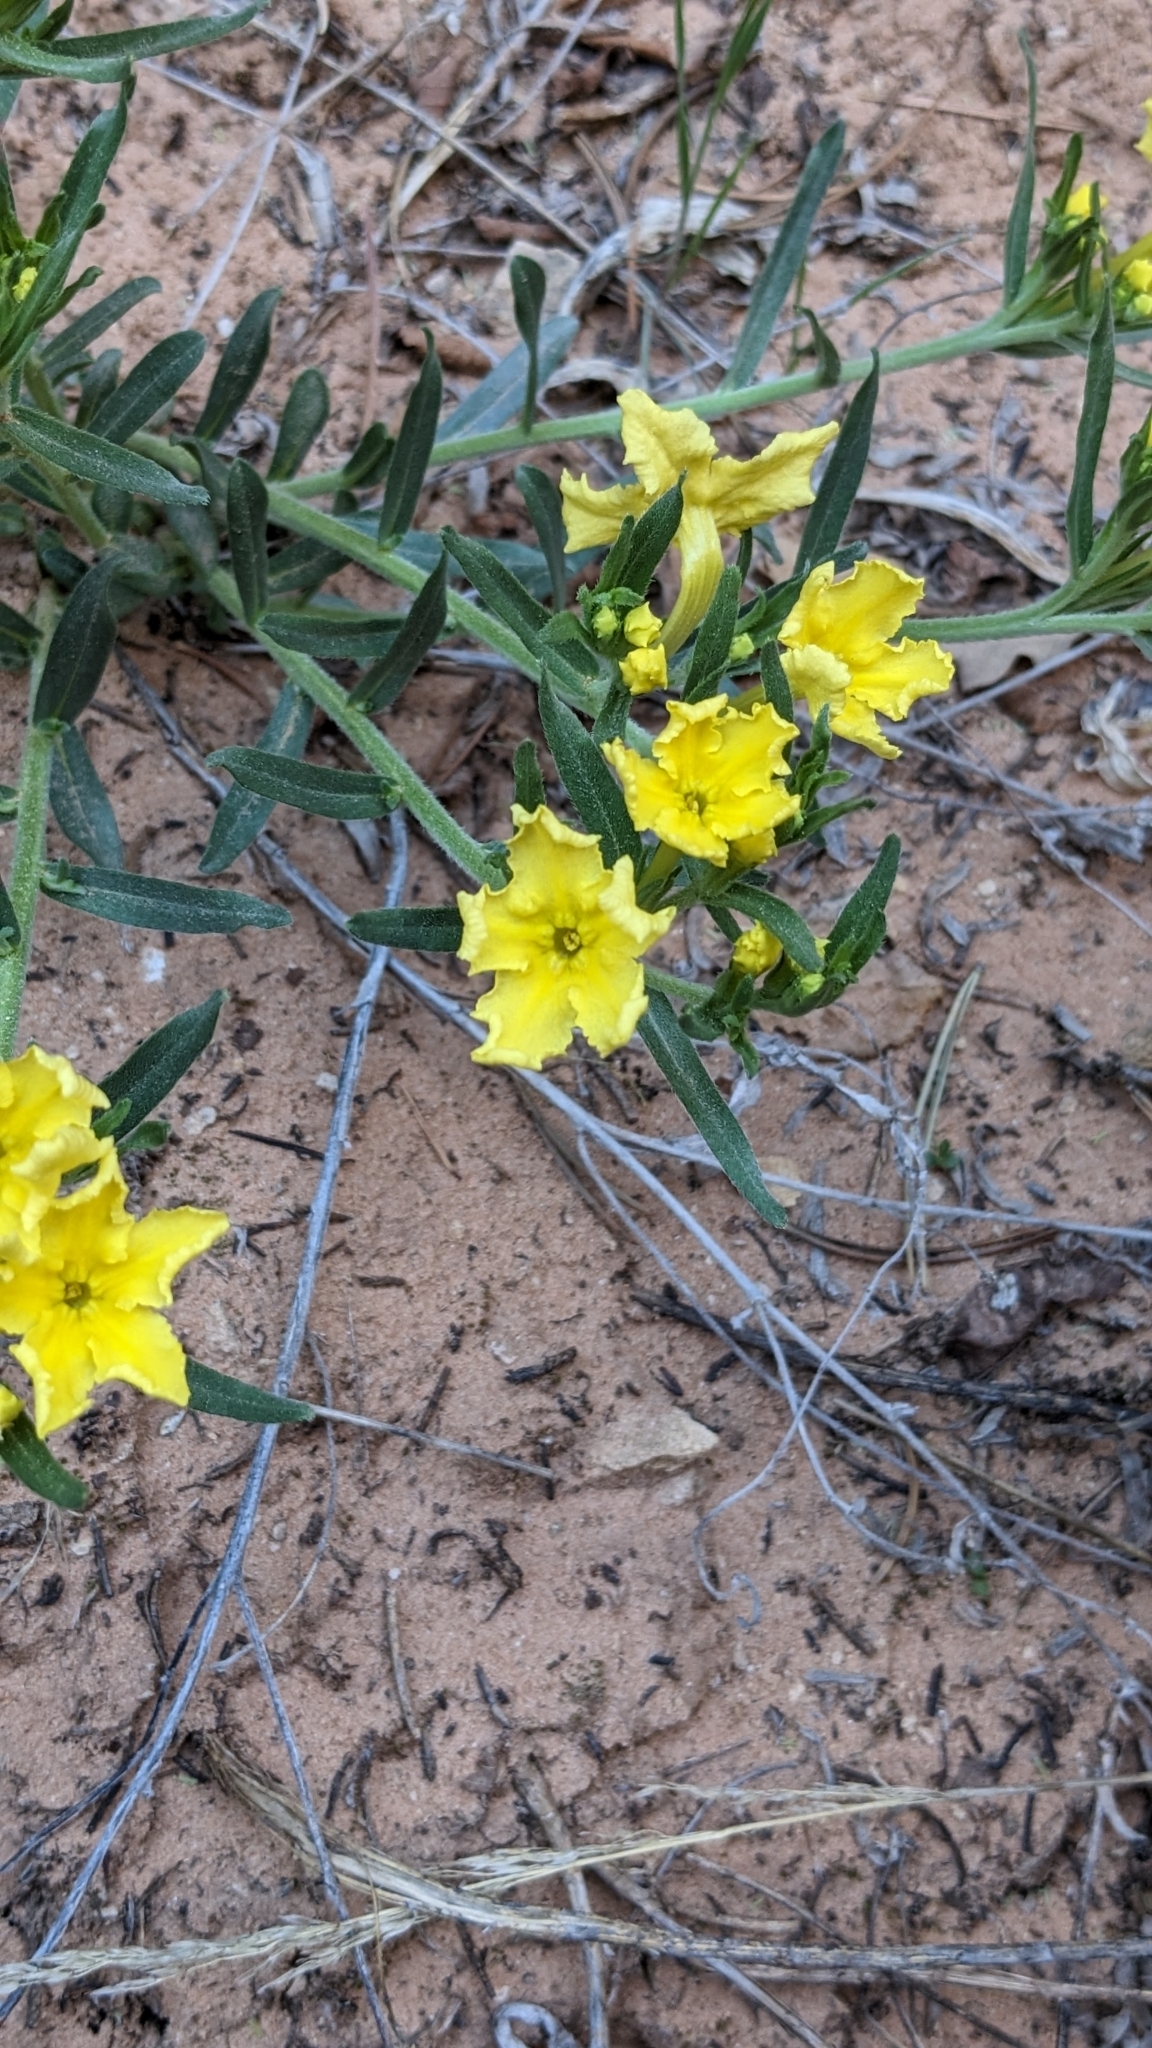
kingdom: Plantae
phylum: Tracheophyta
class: Magnoliopsida
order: Boraginales
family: Boraginaceae
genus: Lithospermum
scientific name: Lithospermum incisum
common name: Fringed gromwell
